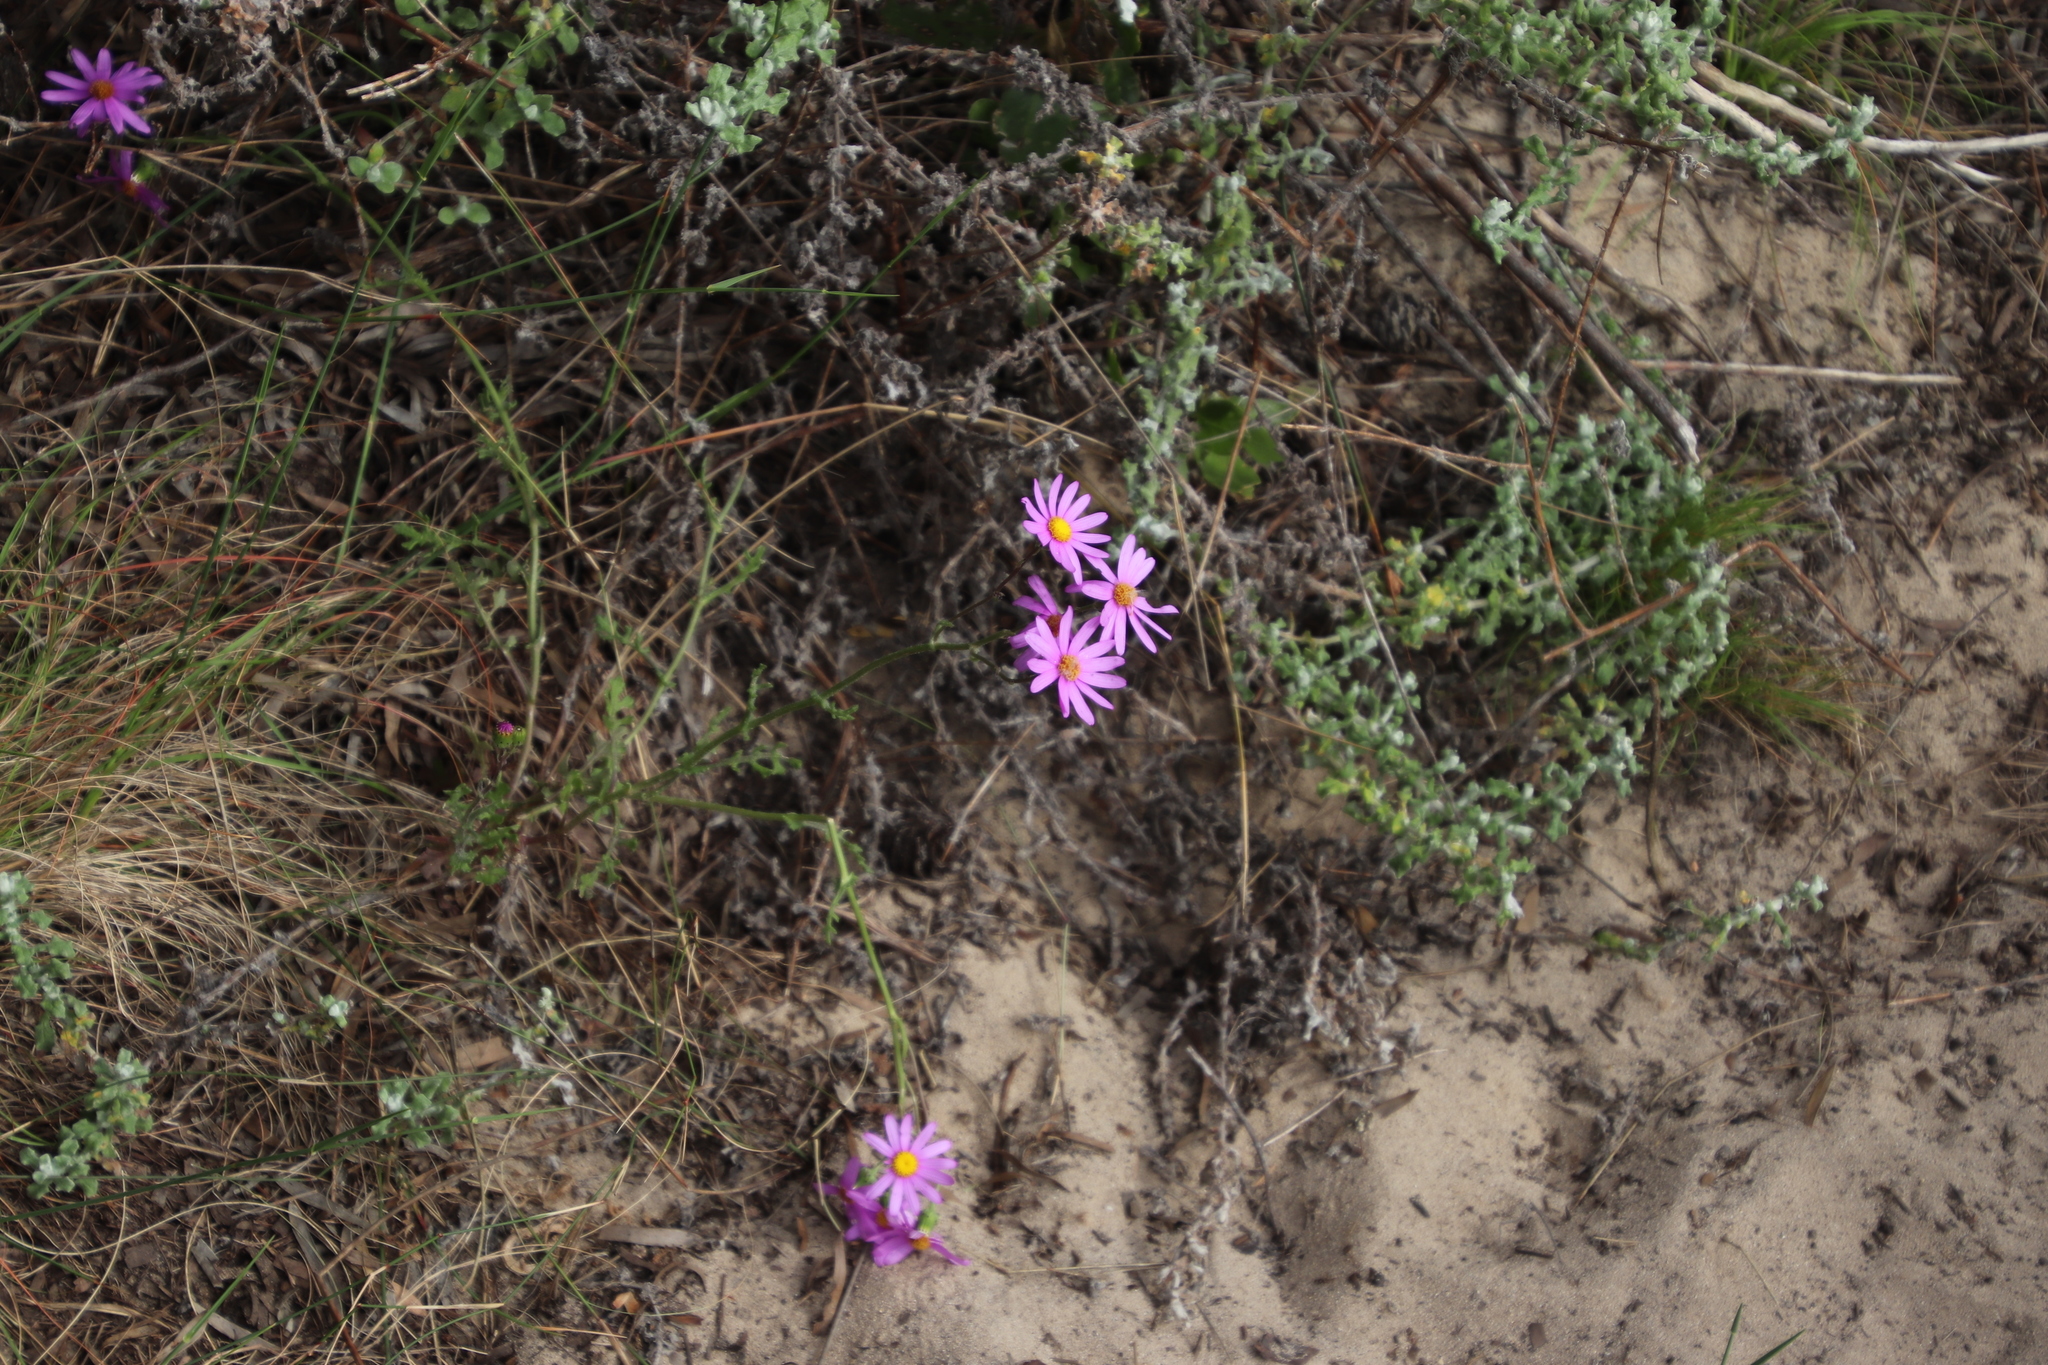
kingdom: Plantae
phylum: Tracheophyta
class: Magnoliopsida
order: Asterales
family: Asteraceae
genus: Senecio
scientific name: Senecio elegans
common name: Purple groundsel
